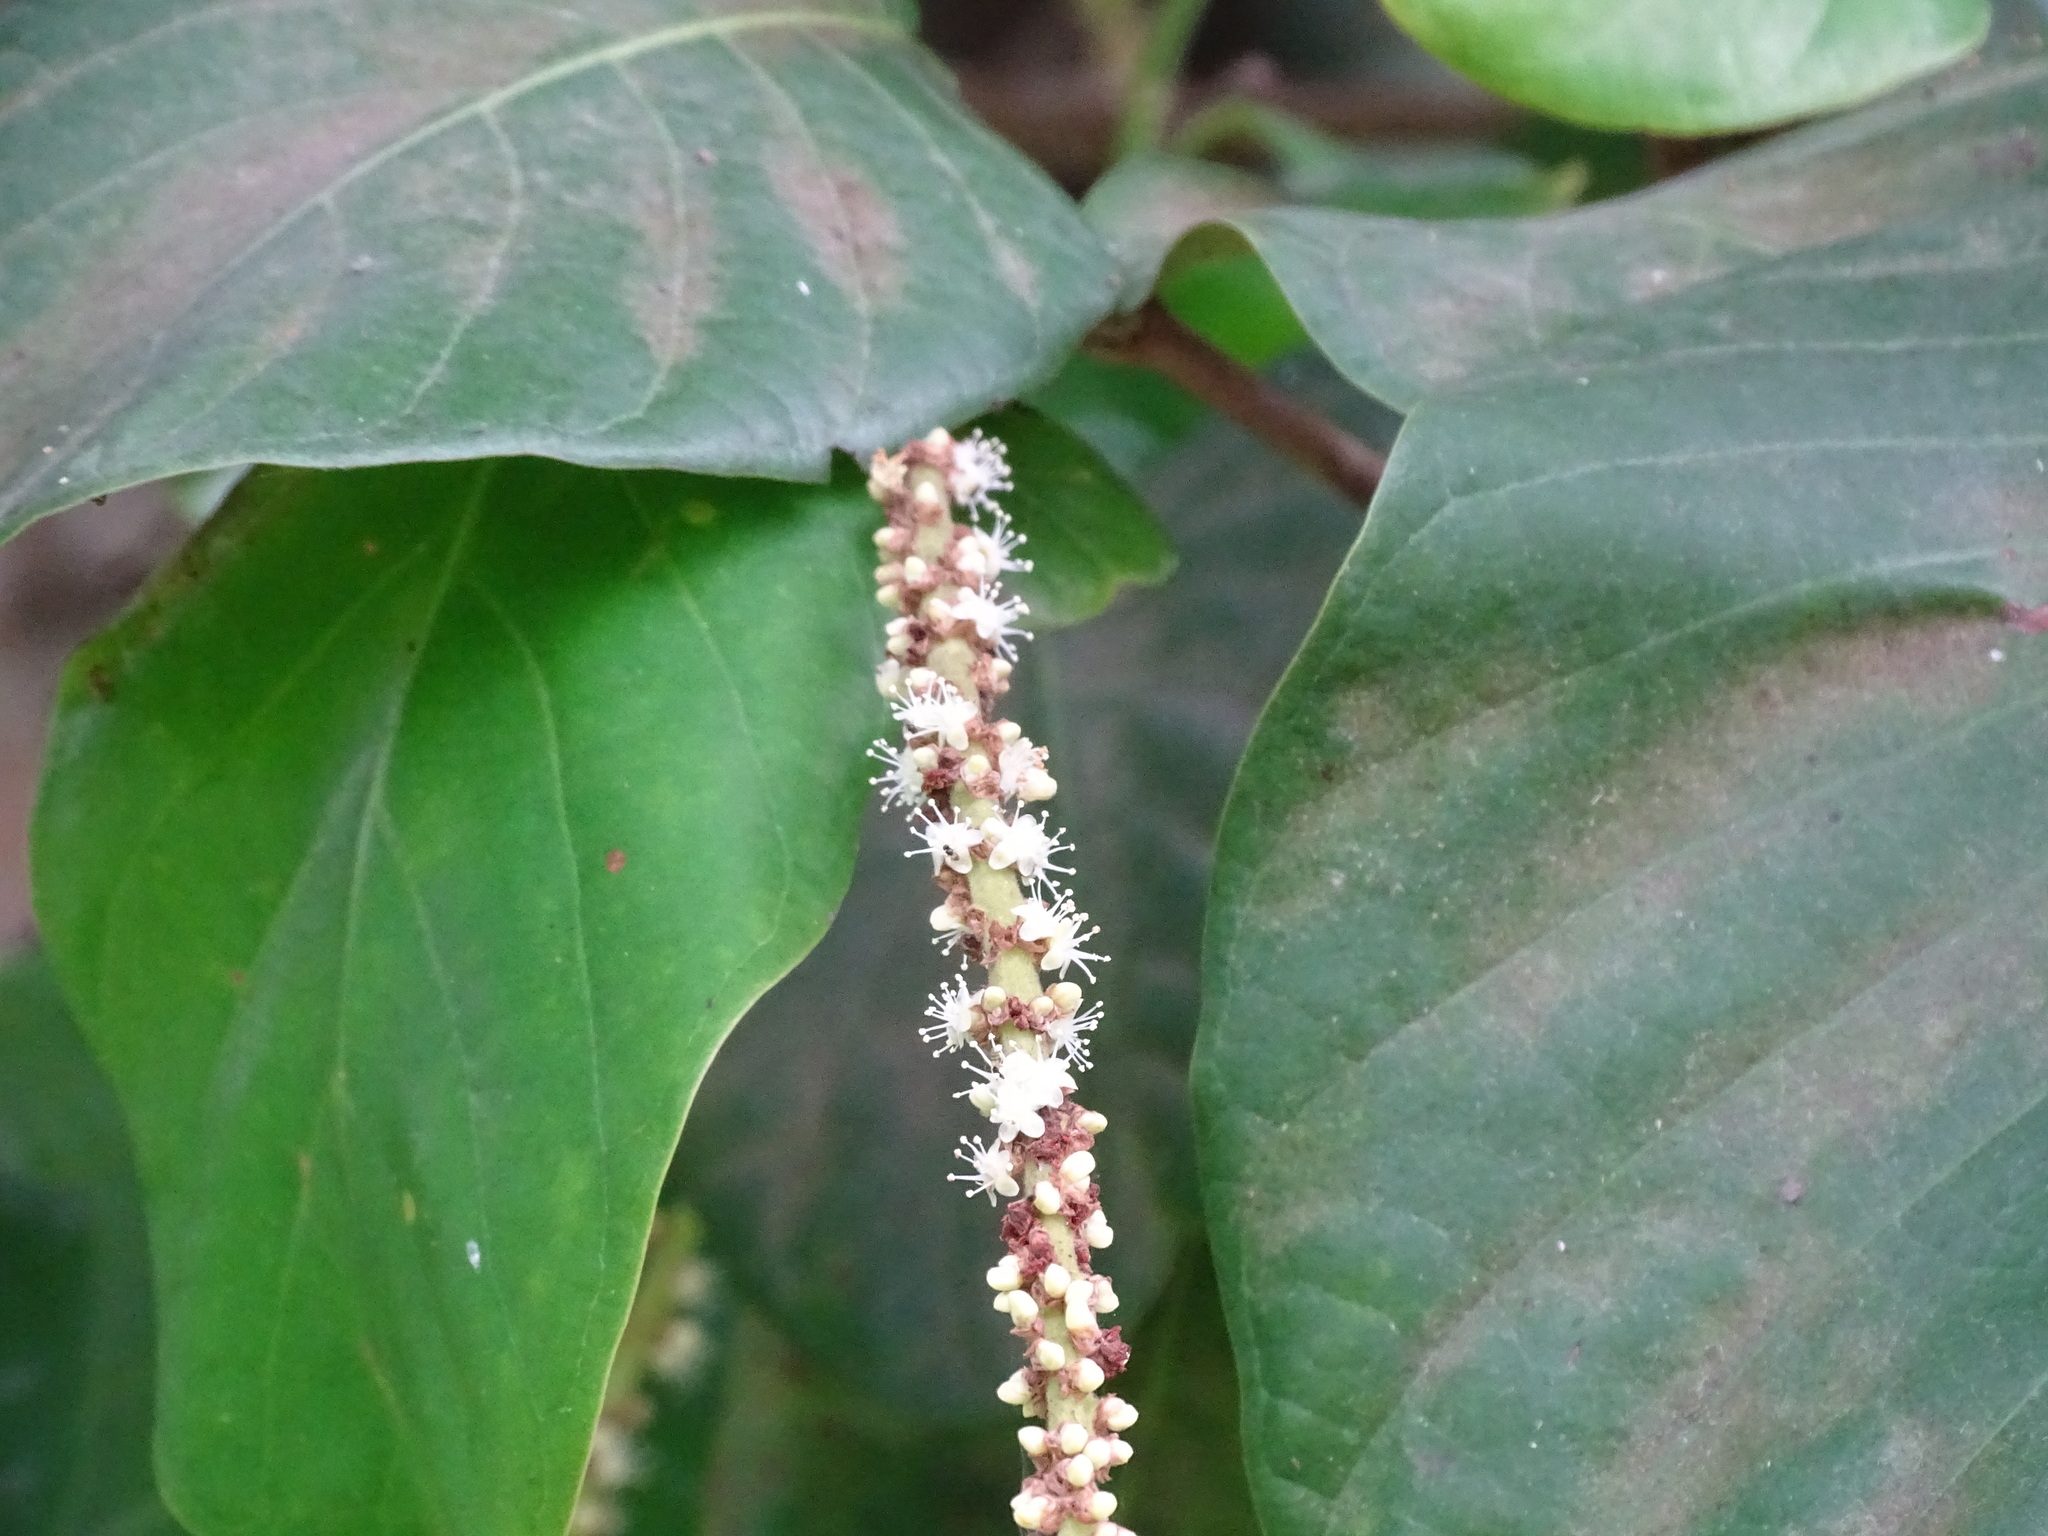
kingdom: Plantae
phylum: Tracheophyta
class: Magnoliopsida
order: Caryophyllales
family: Polygonaceae
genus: Coccoloba
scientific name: Coccoloba caracasana
